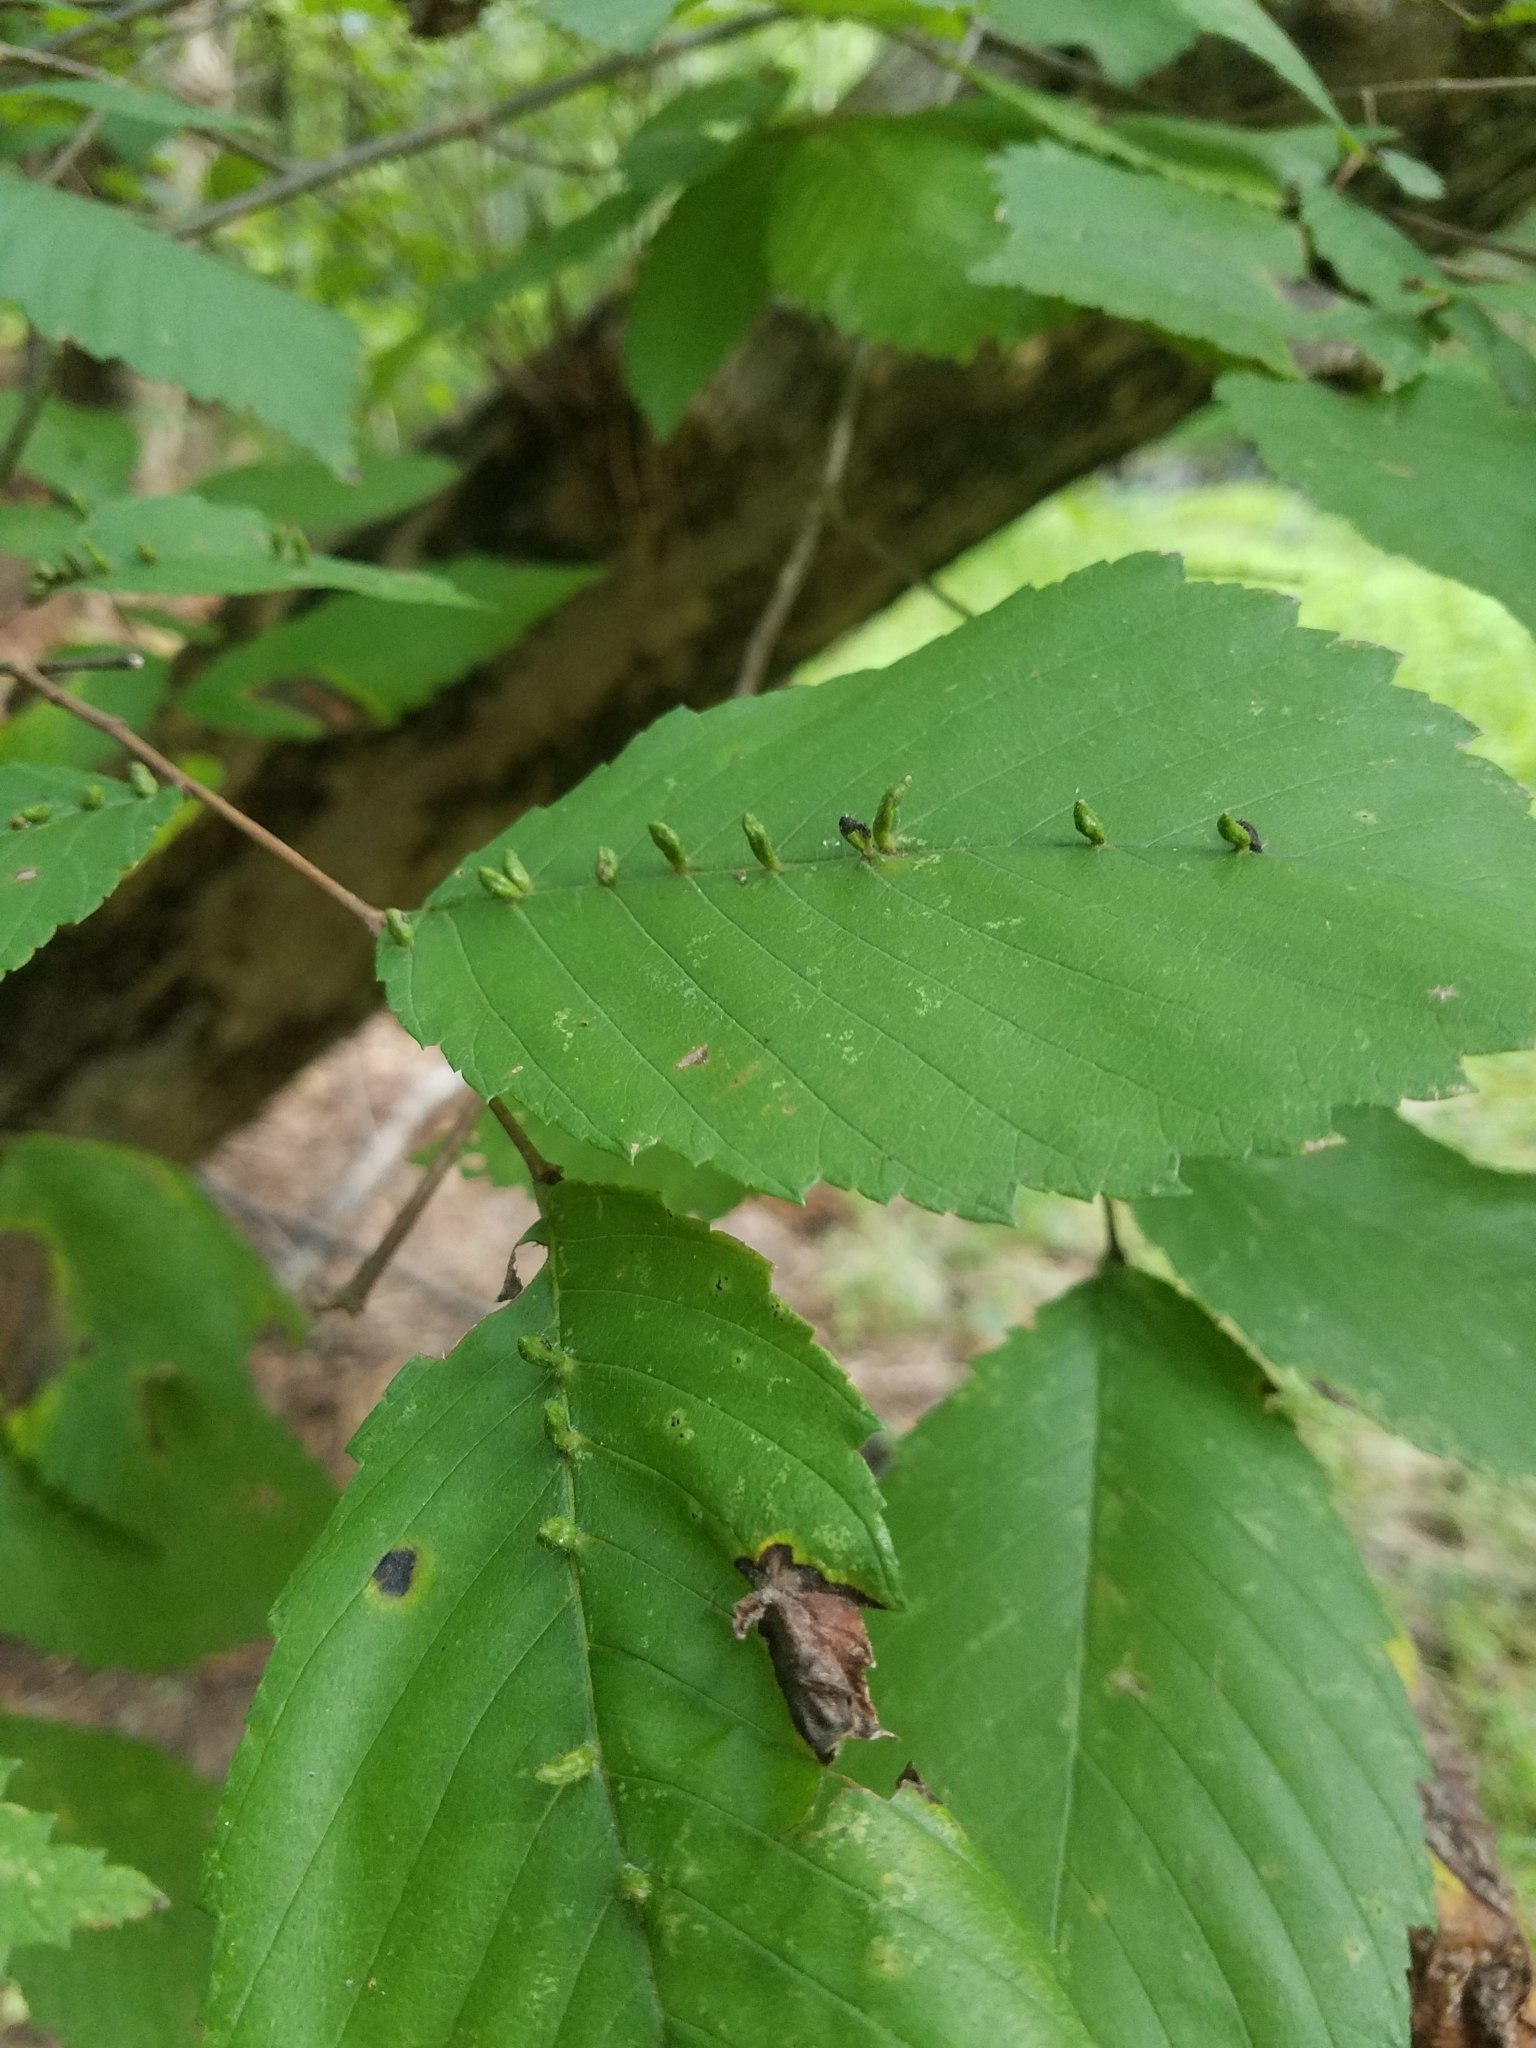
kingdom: Animalia
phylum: Arthropoda
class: Arachnida
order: Trombidiformes
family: Eriophyidae
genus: Aceria
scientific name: Aceria
